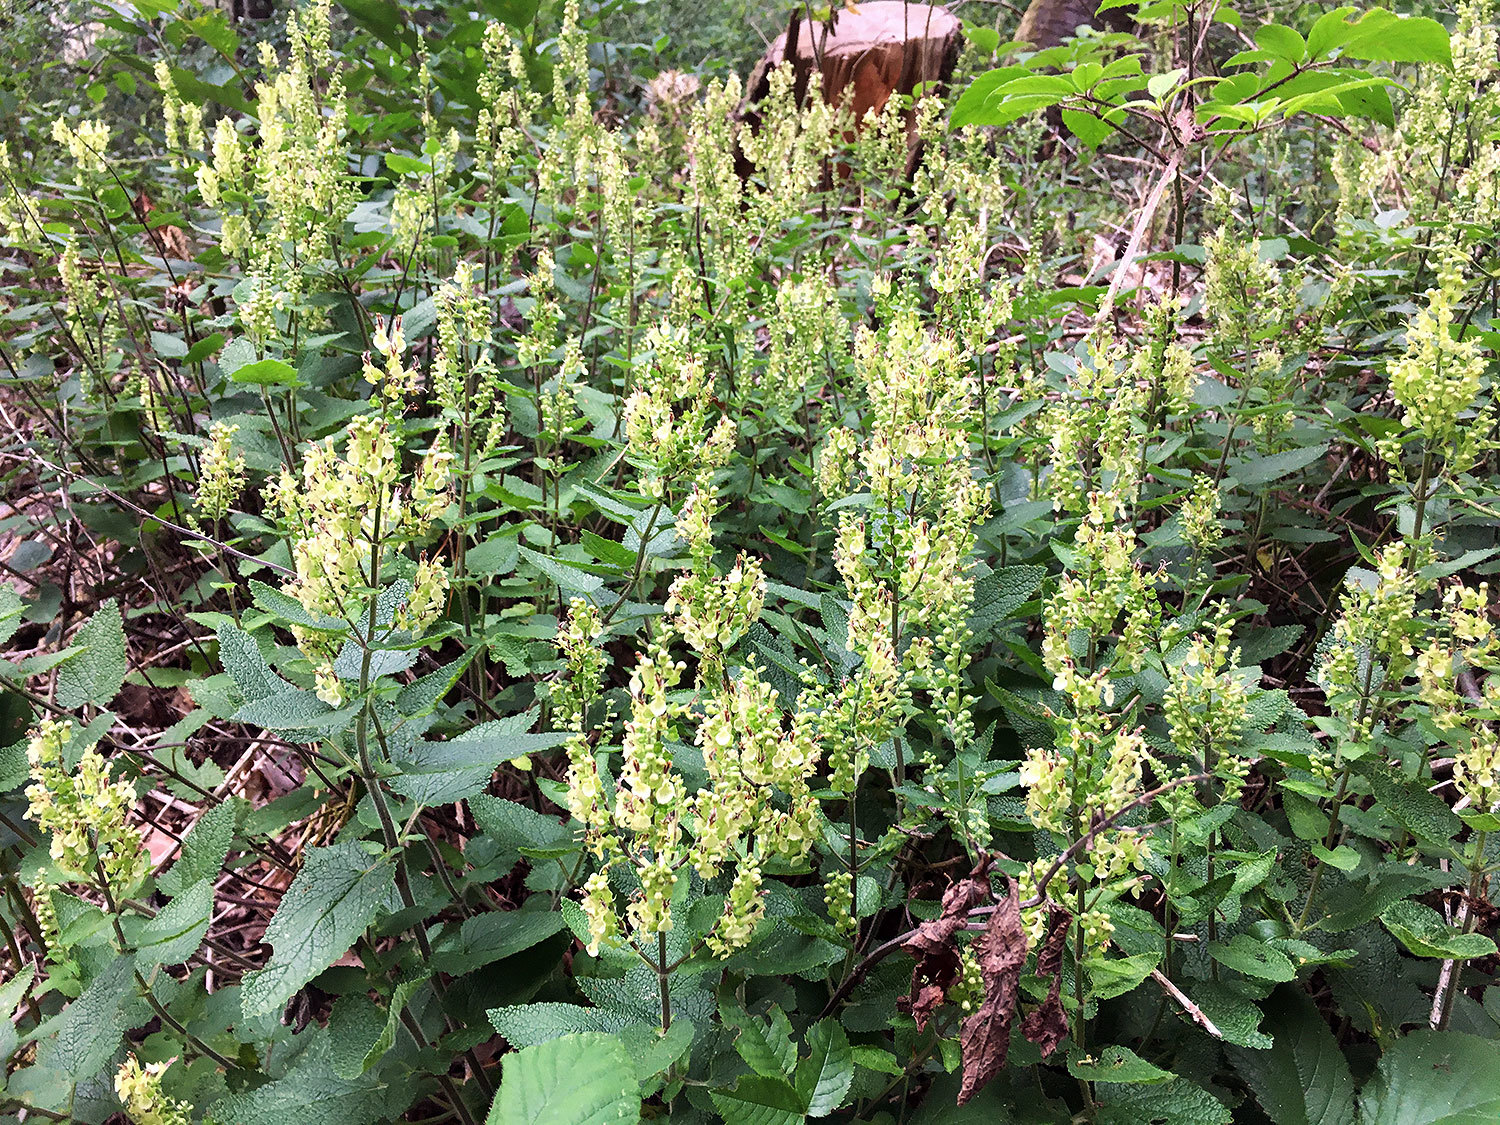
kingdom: Plantae
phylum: Tracheophyta
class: Magnoliopsida
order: Lamiales
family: Lamiaceae
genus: Teucrium
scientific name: Teucrium scorodonia
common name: Woodland germander
